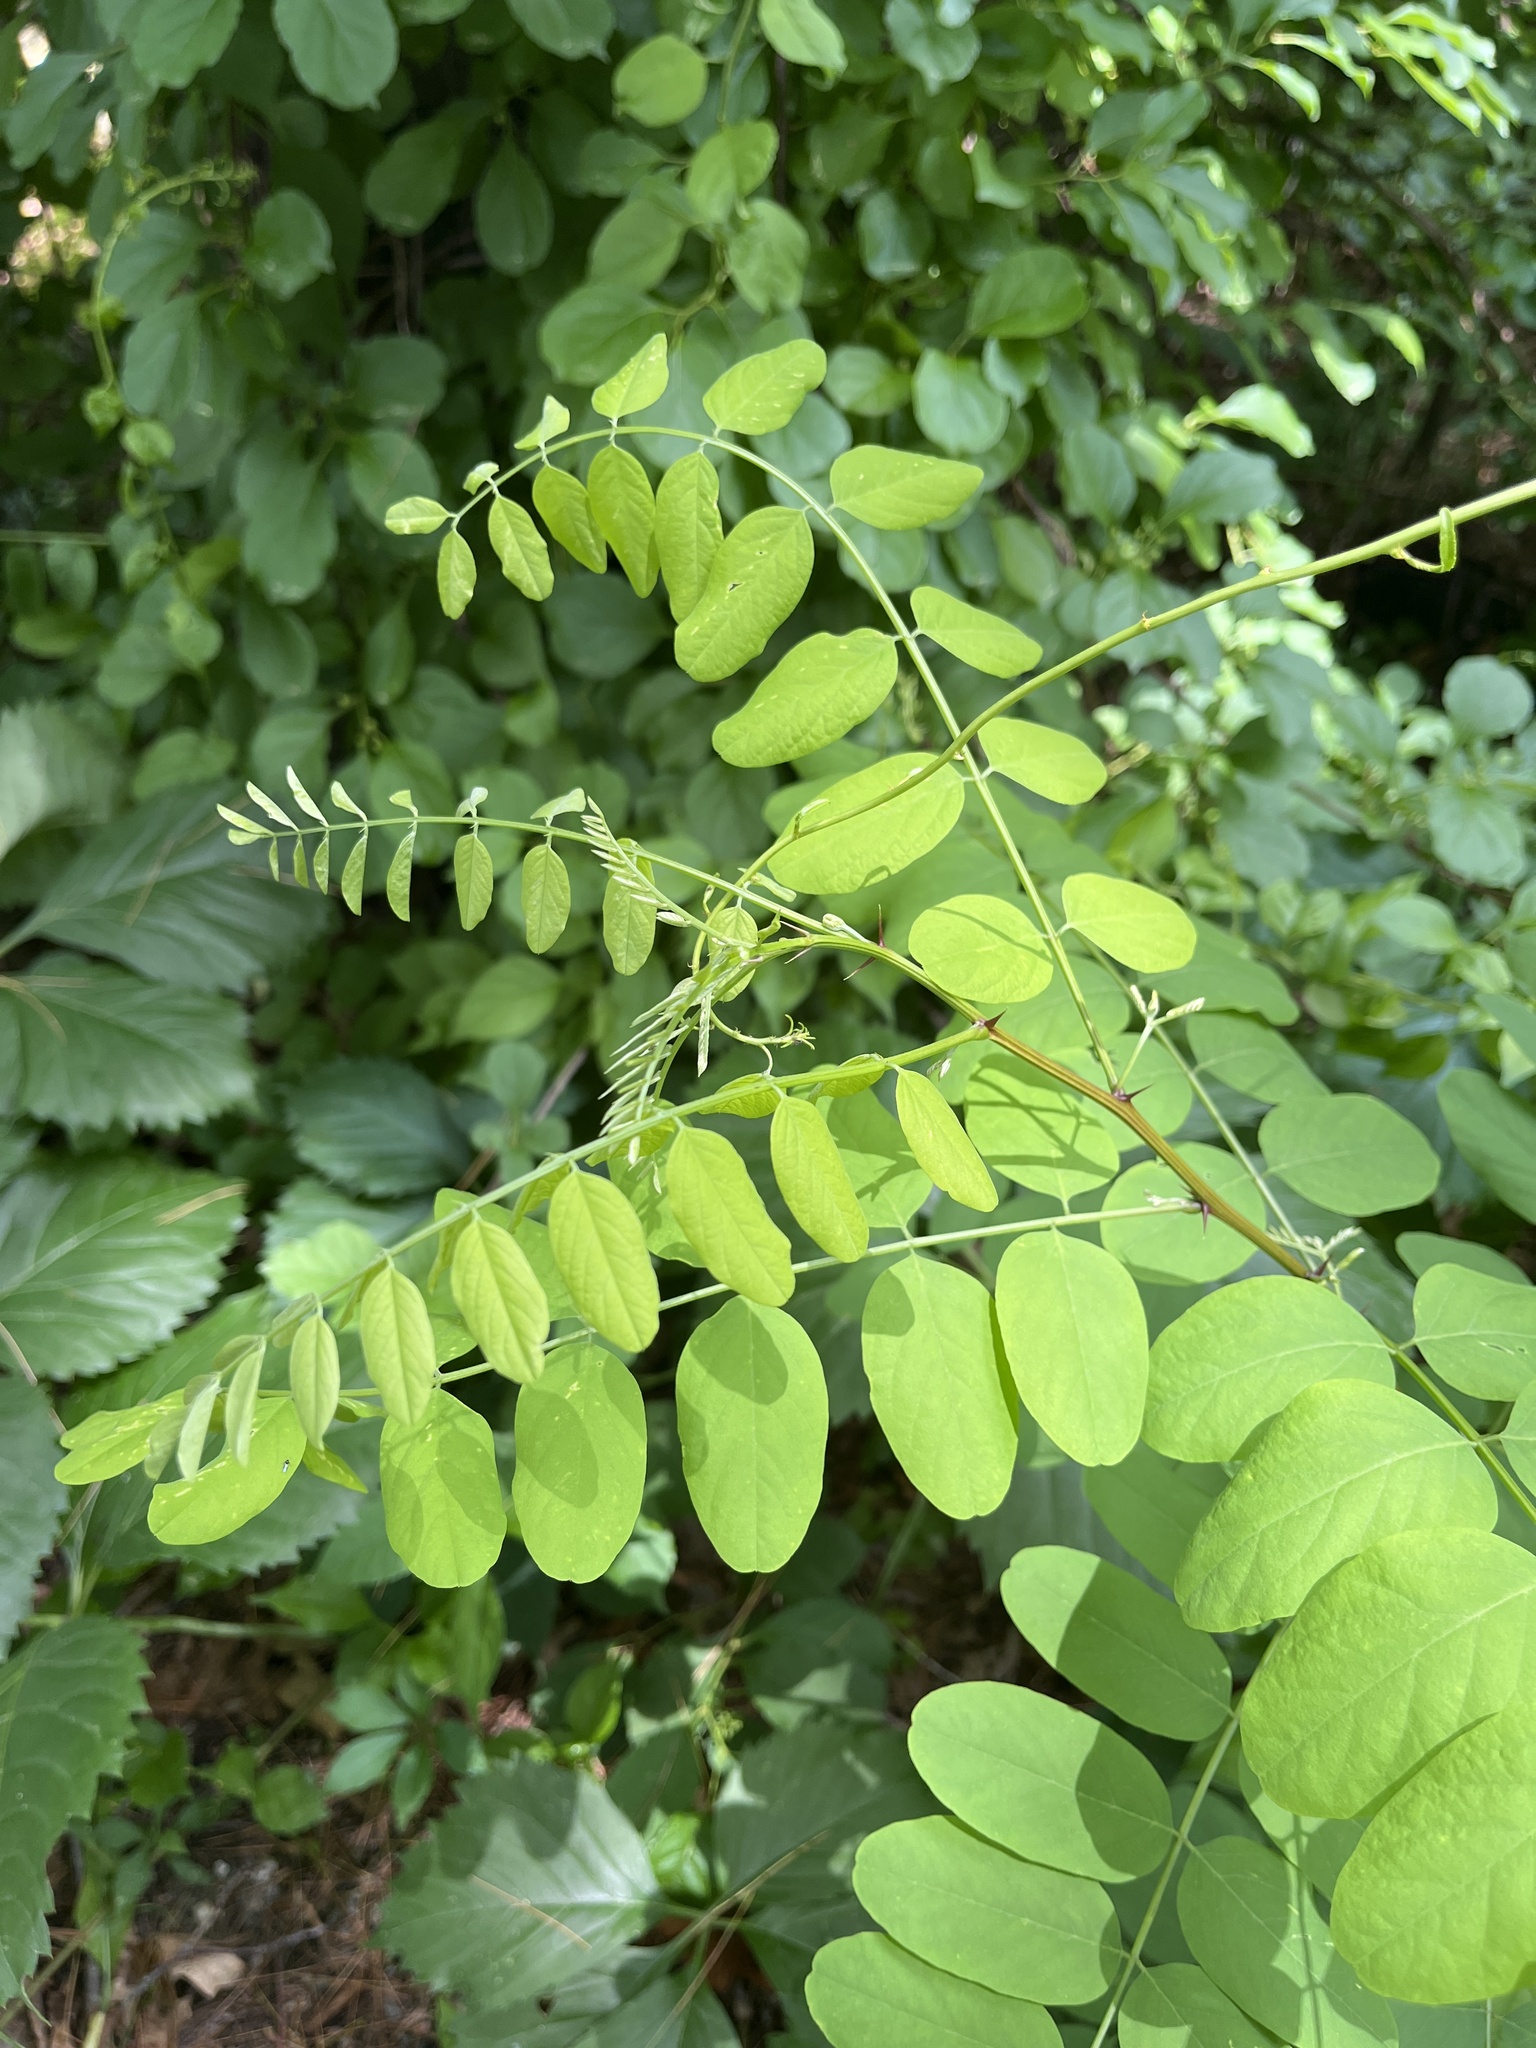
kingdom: Plantae
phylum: Tracheophyta
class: Magnoliopsida
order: Fabales
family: Fabaceae
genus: Robinia
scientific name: Robinia pseudoacacia
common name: Black locust
